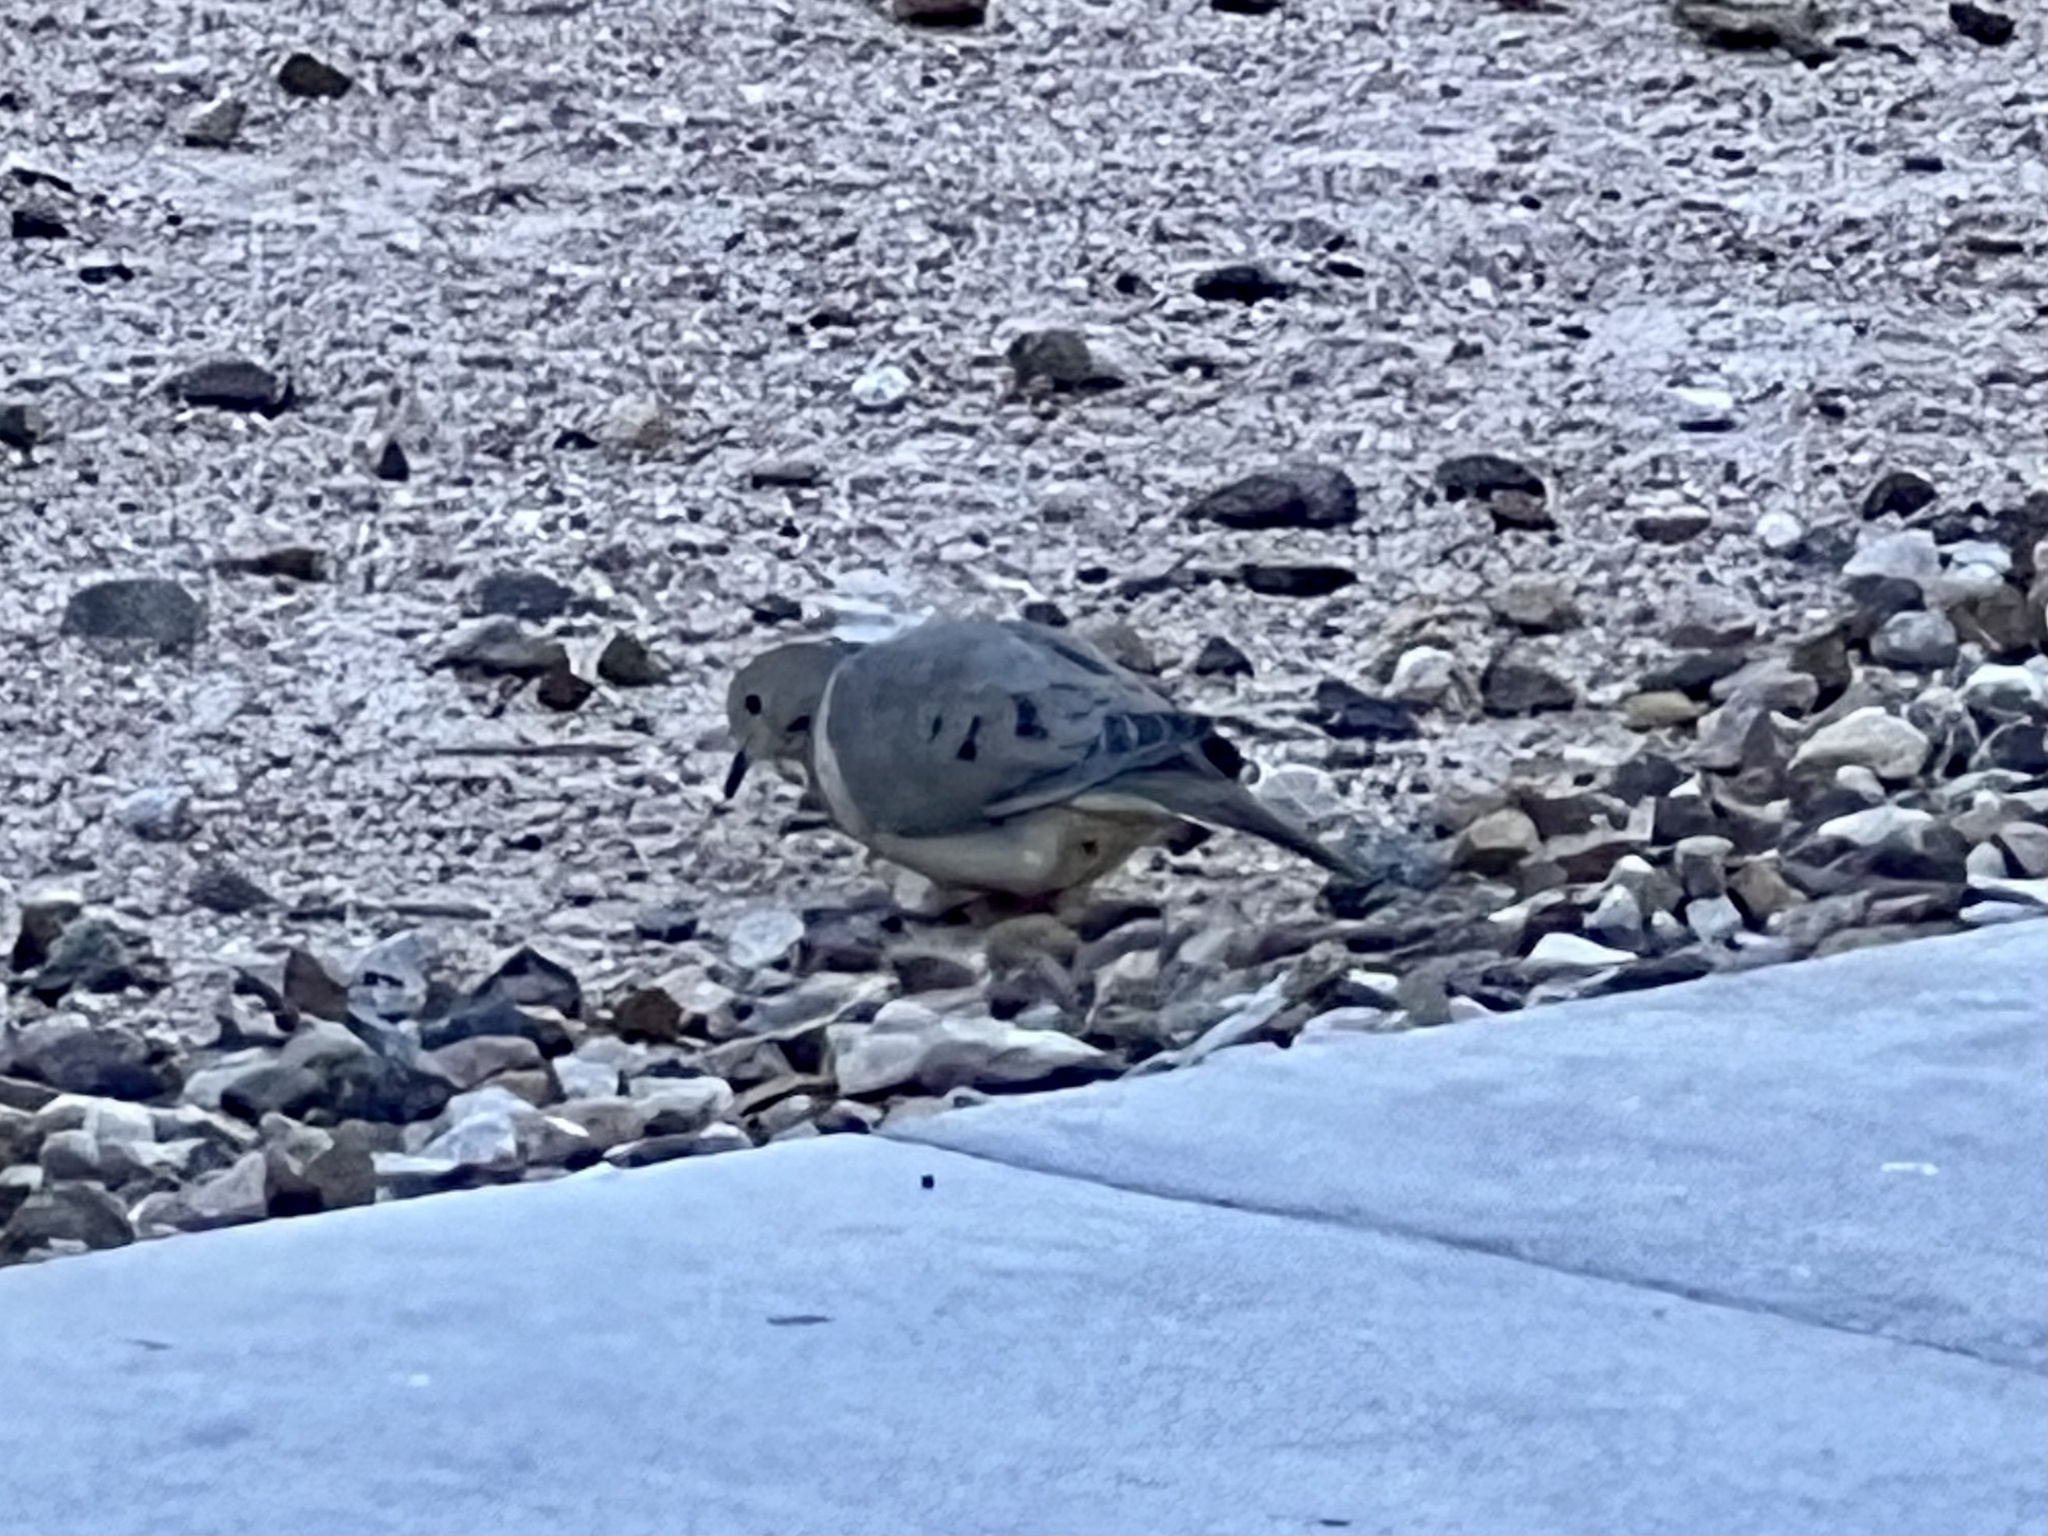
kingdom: Animalia
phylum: Chordata
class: Aves
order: Columbiformes
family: Columbidae
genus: Zenaida
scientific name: Zenaida macroura
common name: Mourning dove
